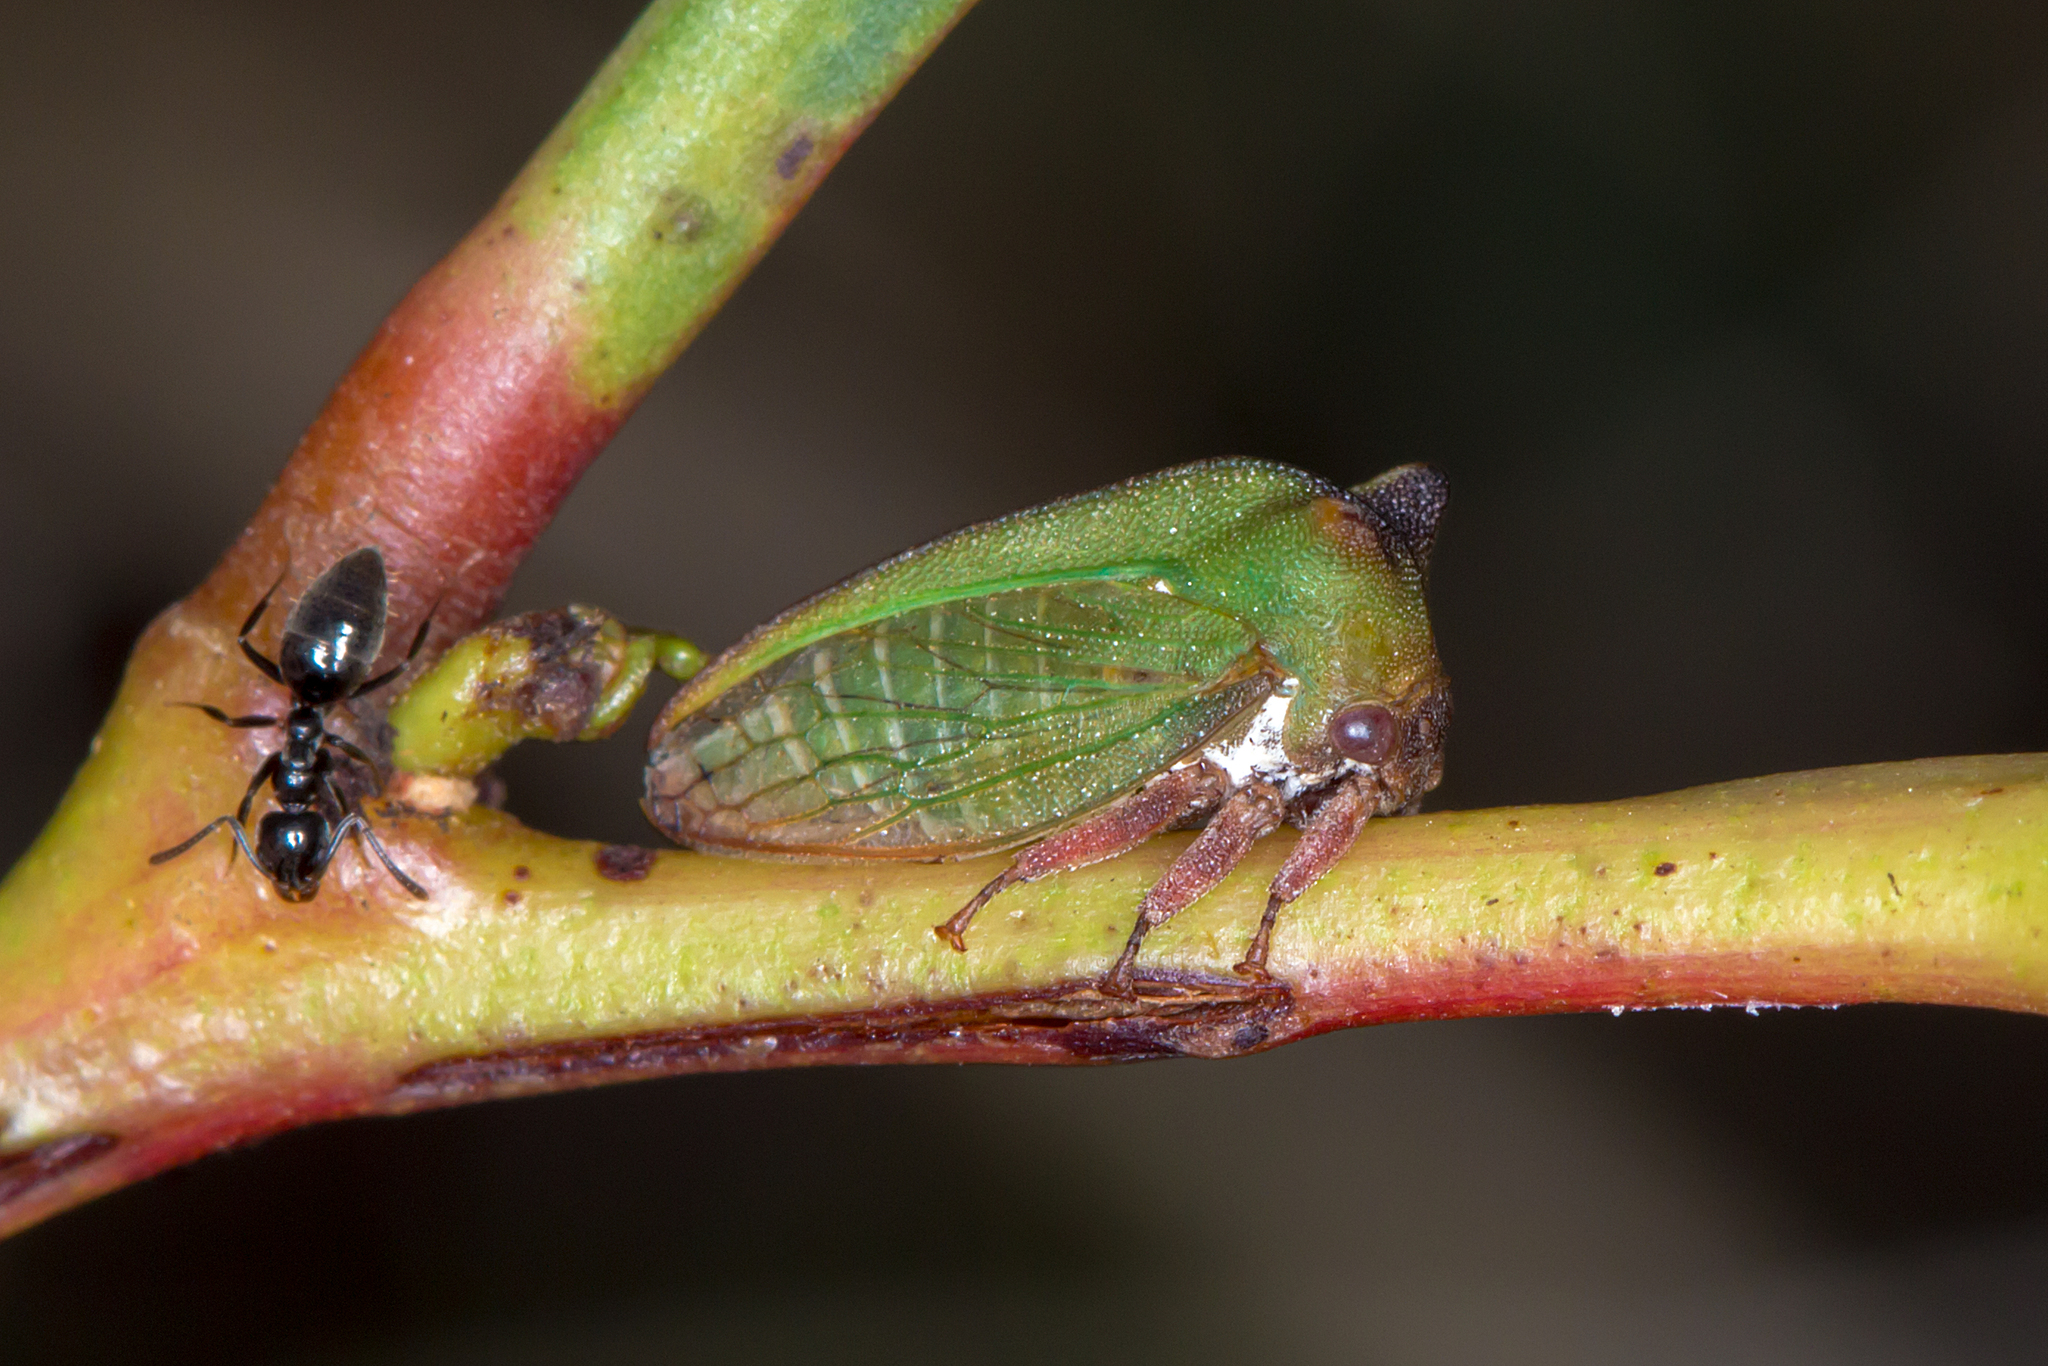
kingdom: Animalia
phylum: Arthropoda
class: Insecta
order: Hemiptera
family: Membracidae
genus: Sextius
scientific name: Sextius virescens
